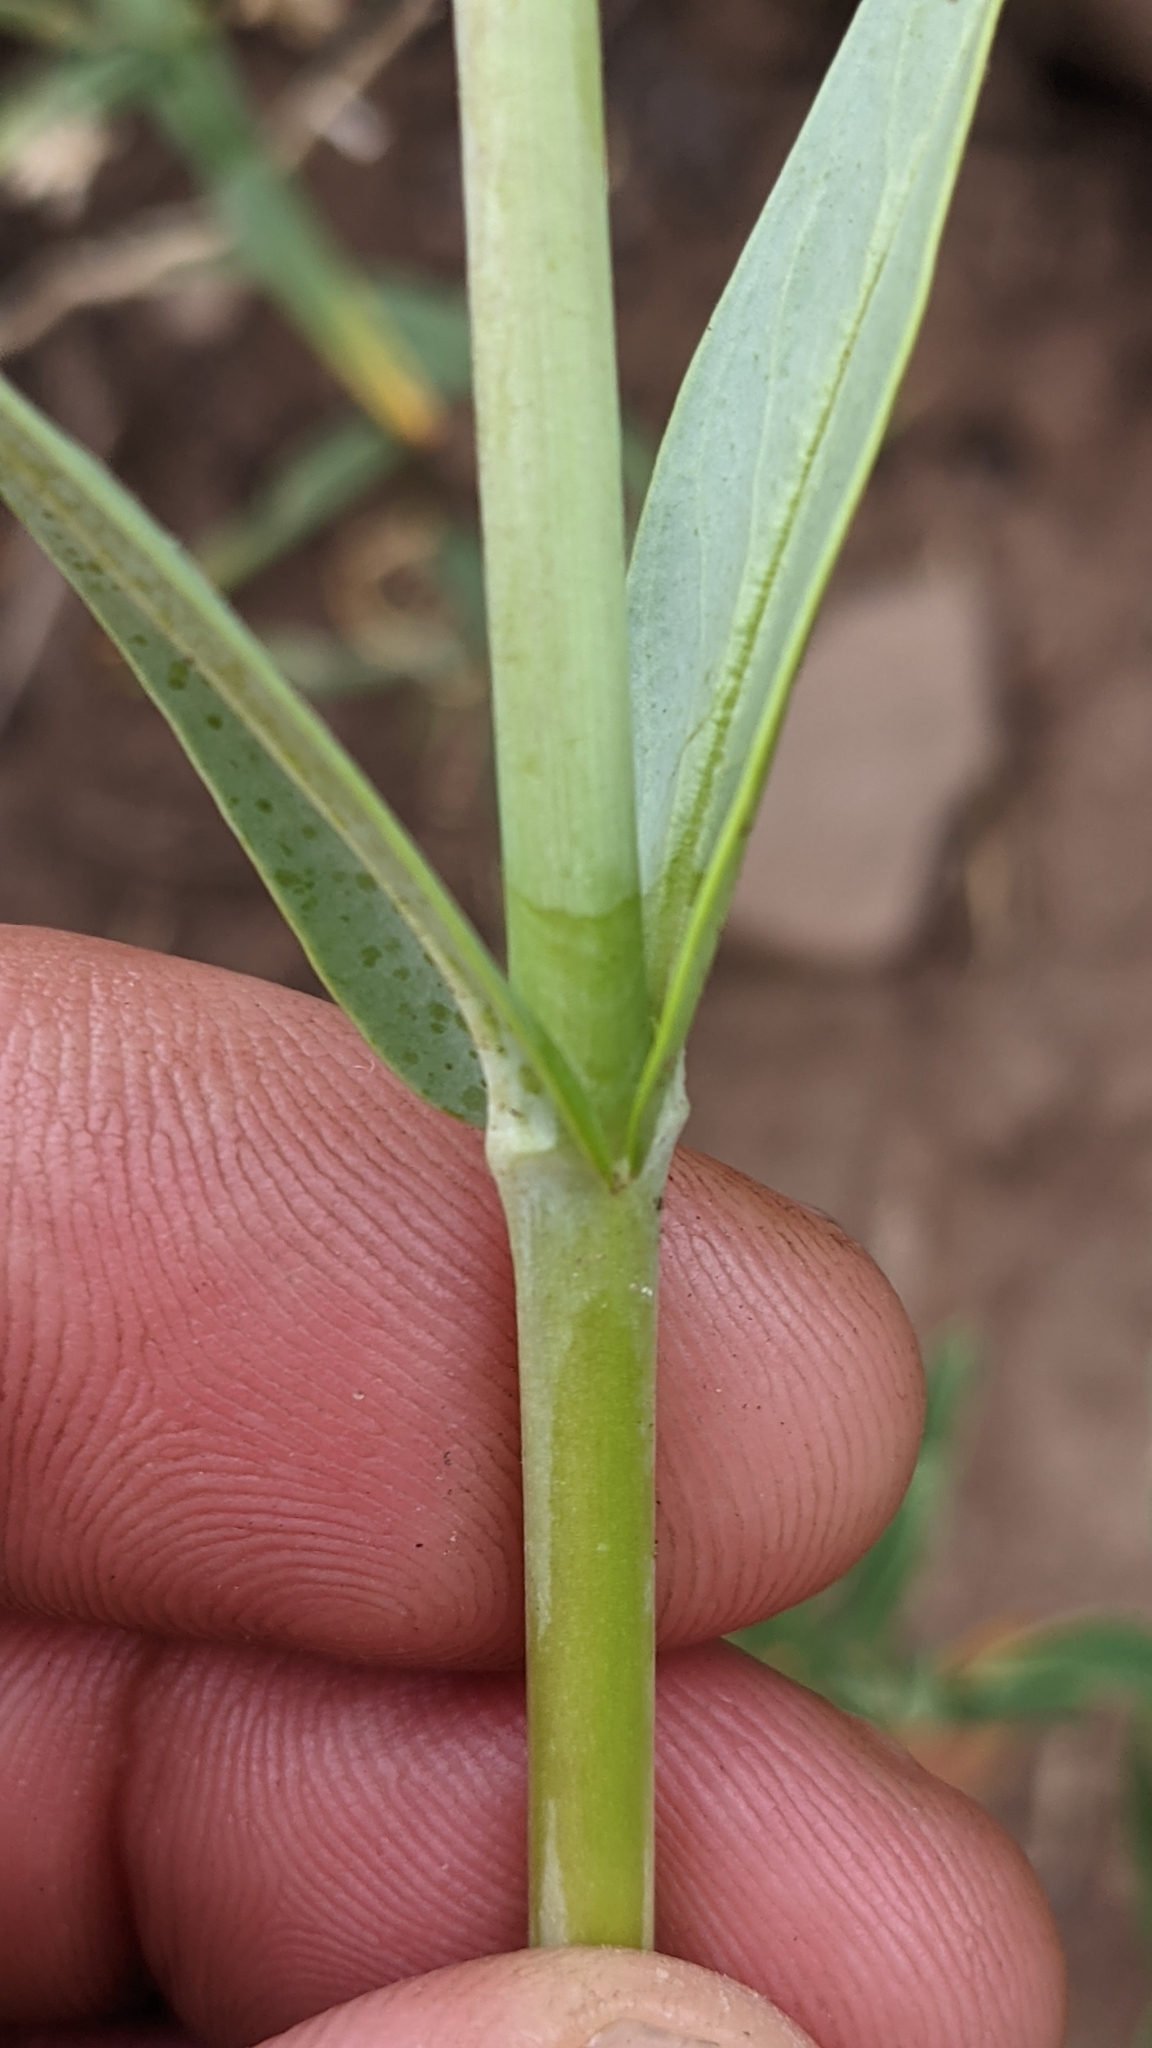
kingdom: Plantae
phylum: Tracheophyta
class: Magnoliopsida
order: Lamiales
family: Plantaginaceae
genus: Penstemon
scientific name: Penstemon leiophyllus
